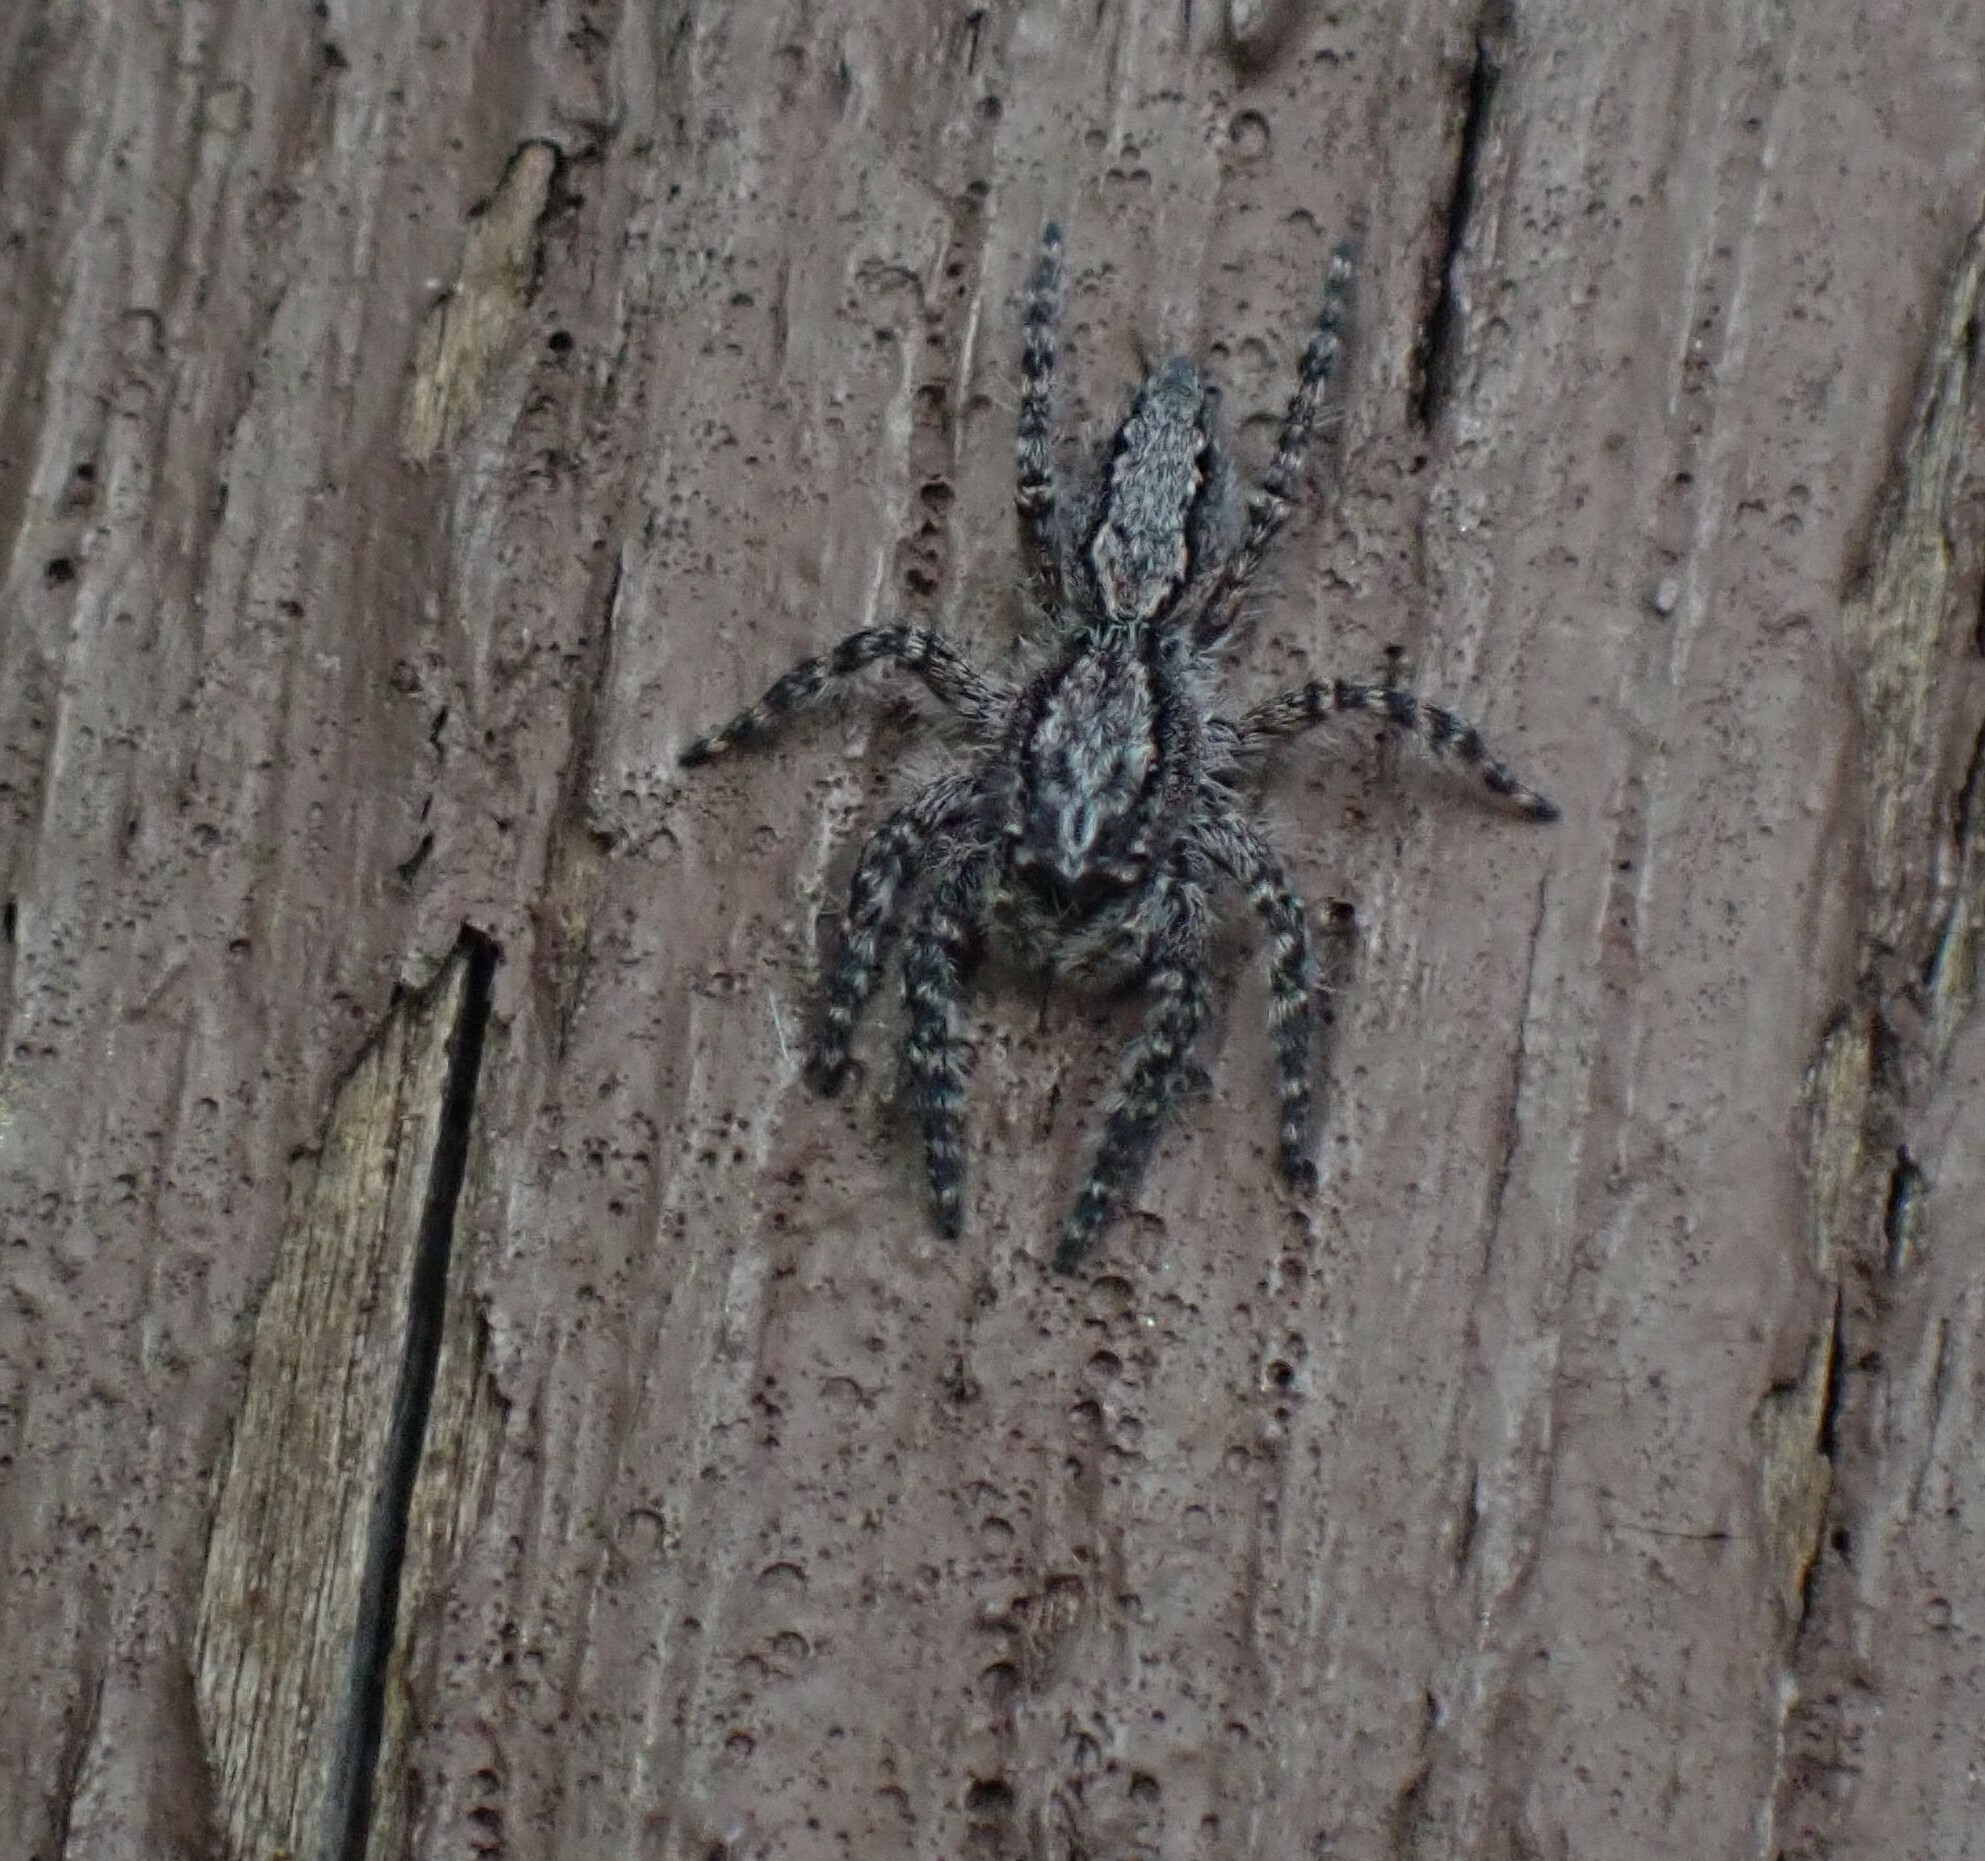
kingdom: Animalia
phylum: Arthropoda
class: Arachnida
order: Araneae
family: Salticidae
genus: Clynotis
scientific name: Clynotis severus
